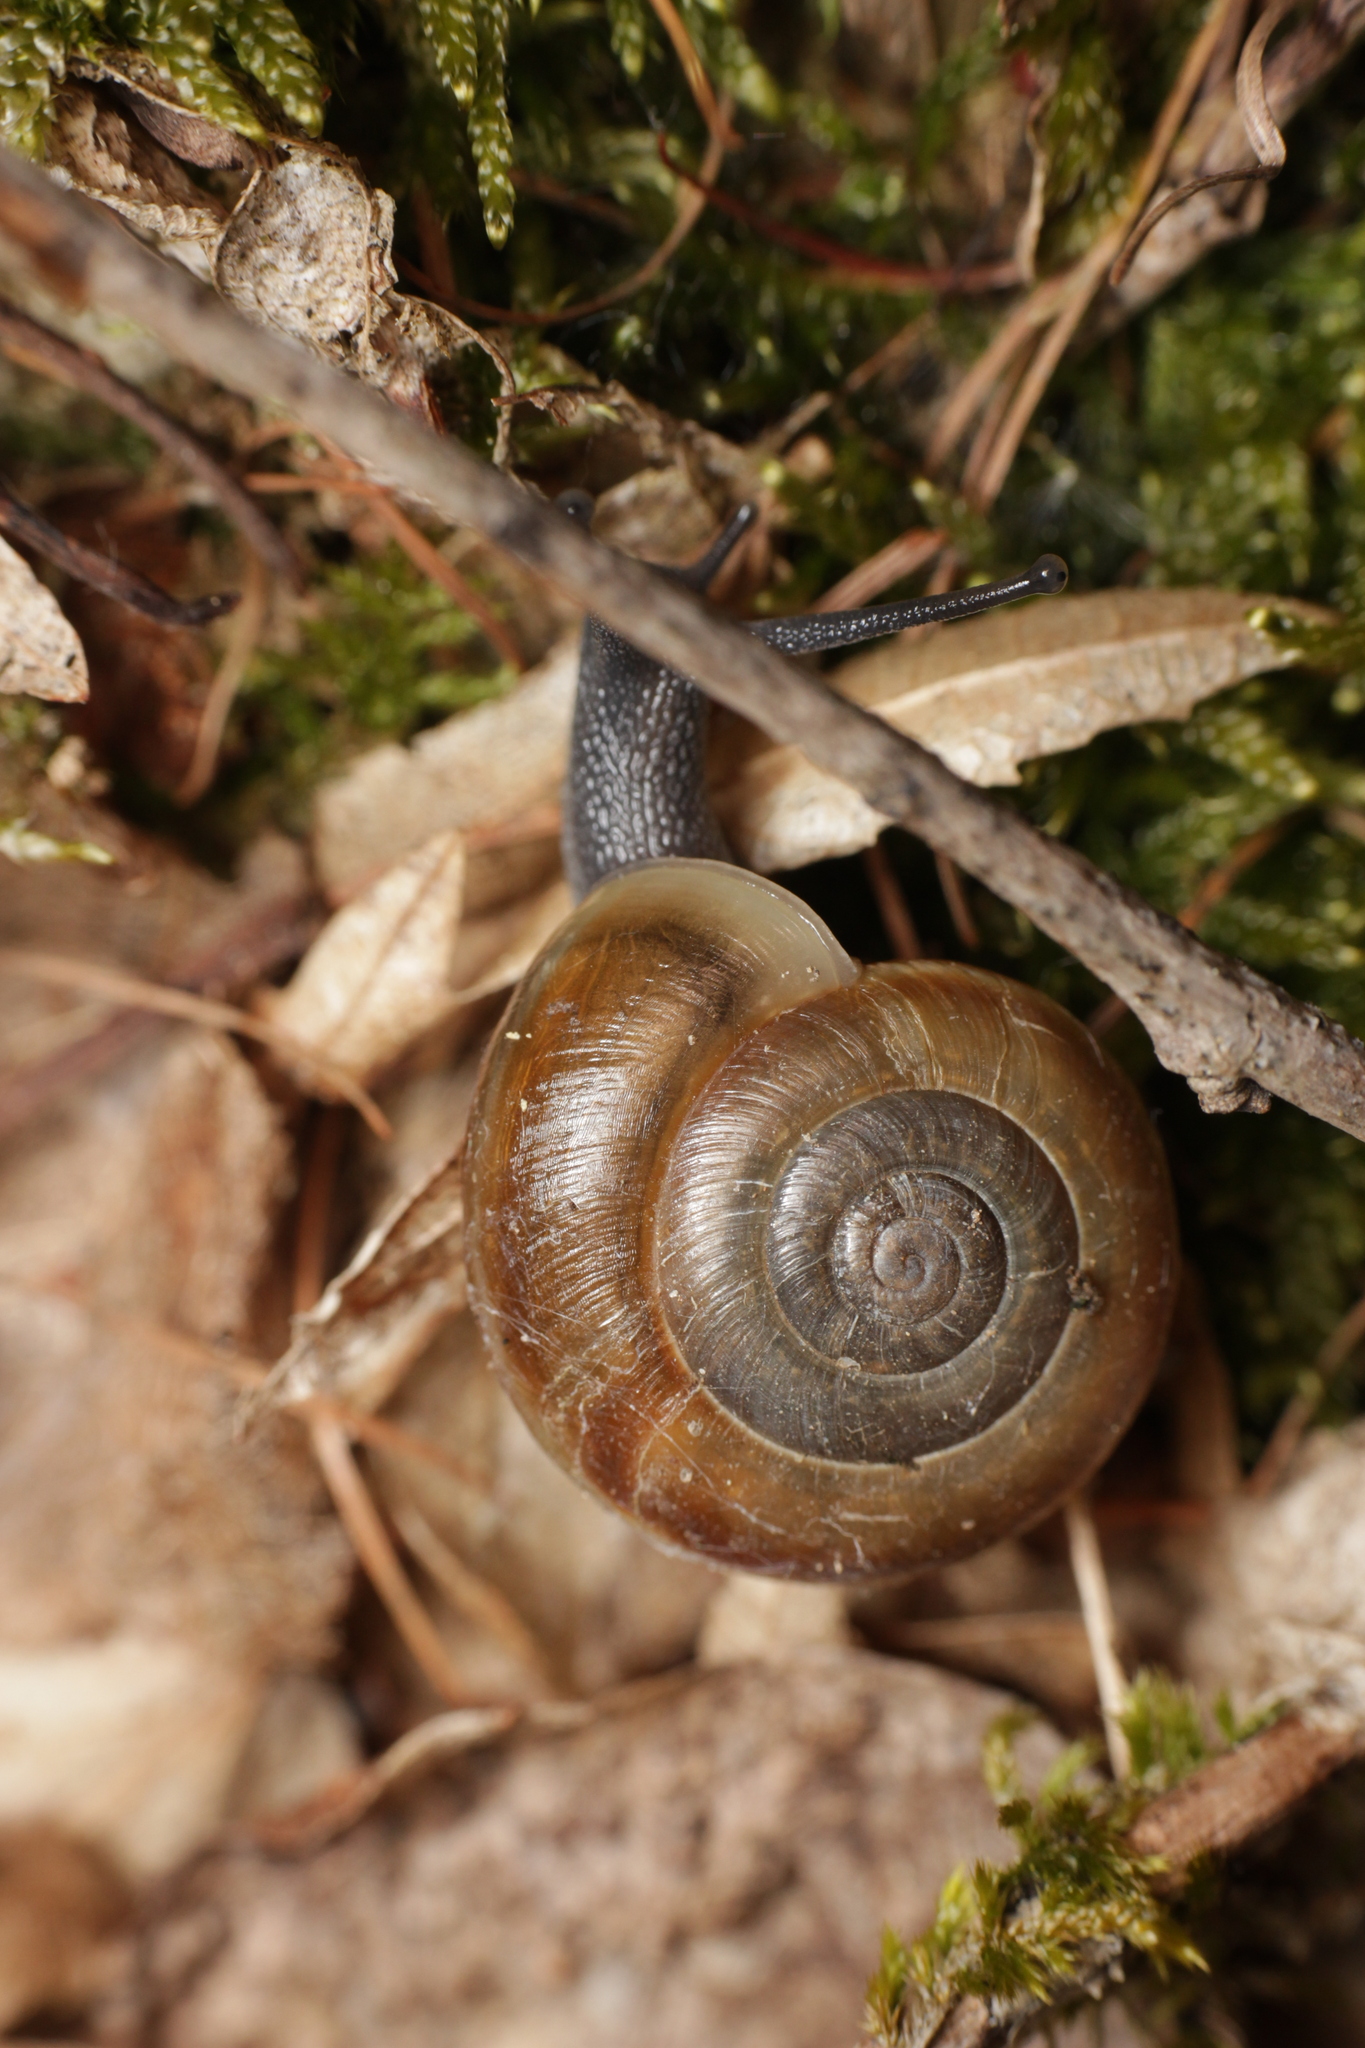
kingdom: Animalia
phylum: Mollusca
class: Gastropoda
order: Stylommatophora
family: Helicidae
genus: Chilostoma
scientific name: Chilostoma achates
